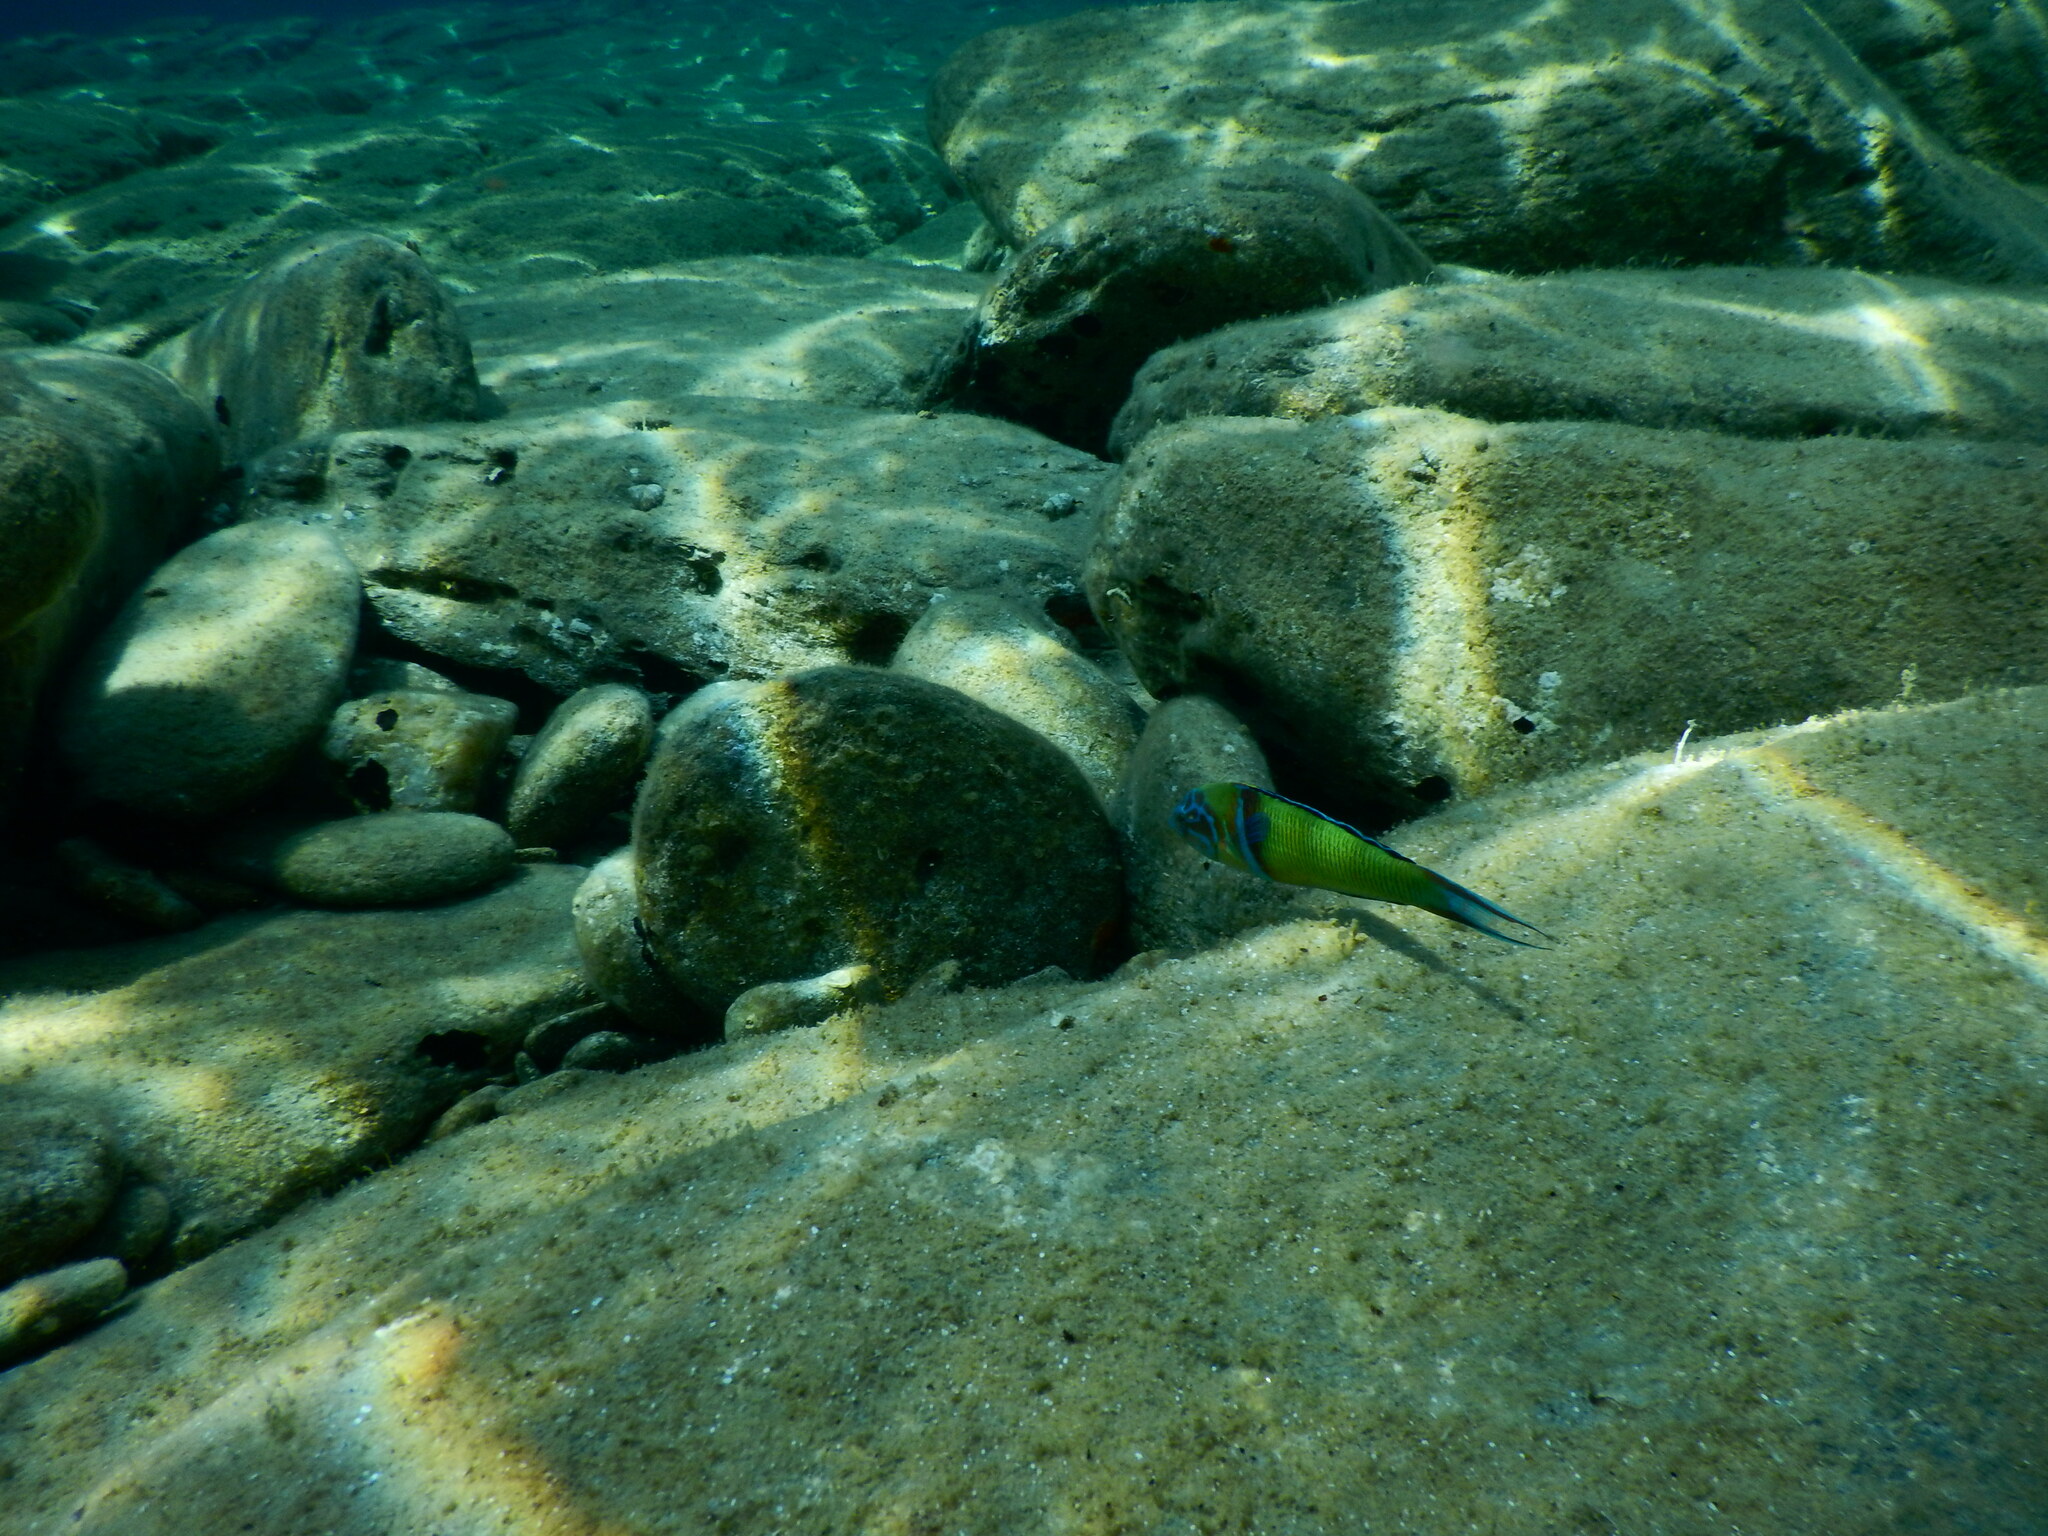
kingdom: Animalia
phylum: Chordata
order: Perciformes
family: Labridae
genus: Thalassoma
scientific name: Thalassoma pavo
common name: Ornate wrasse
